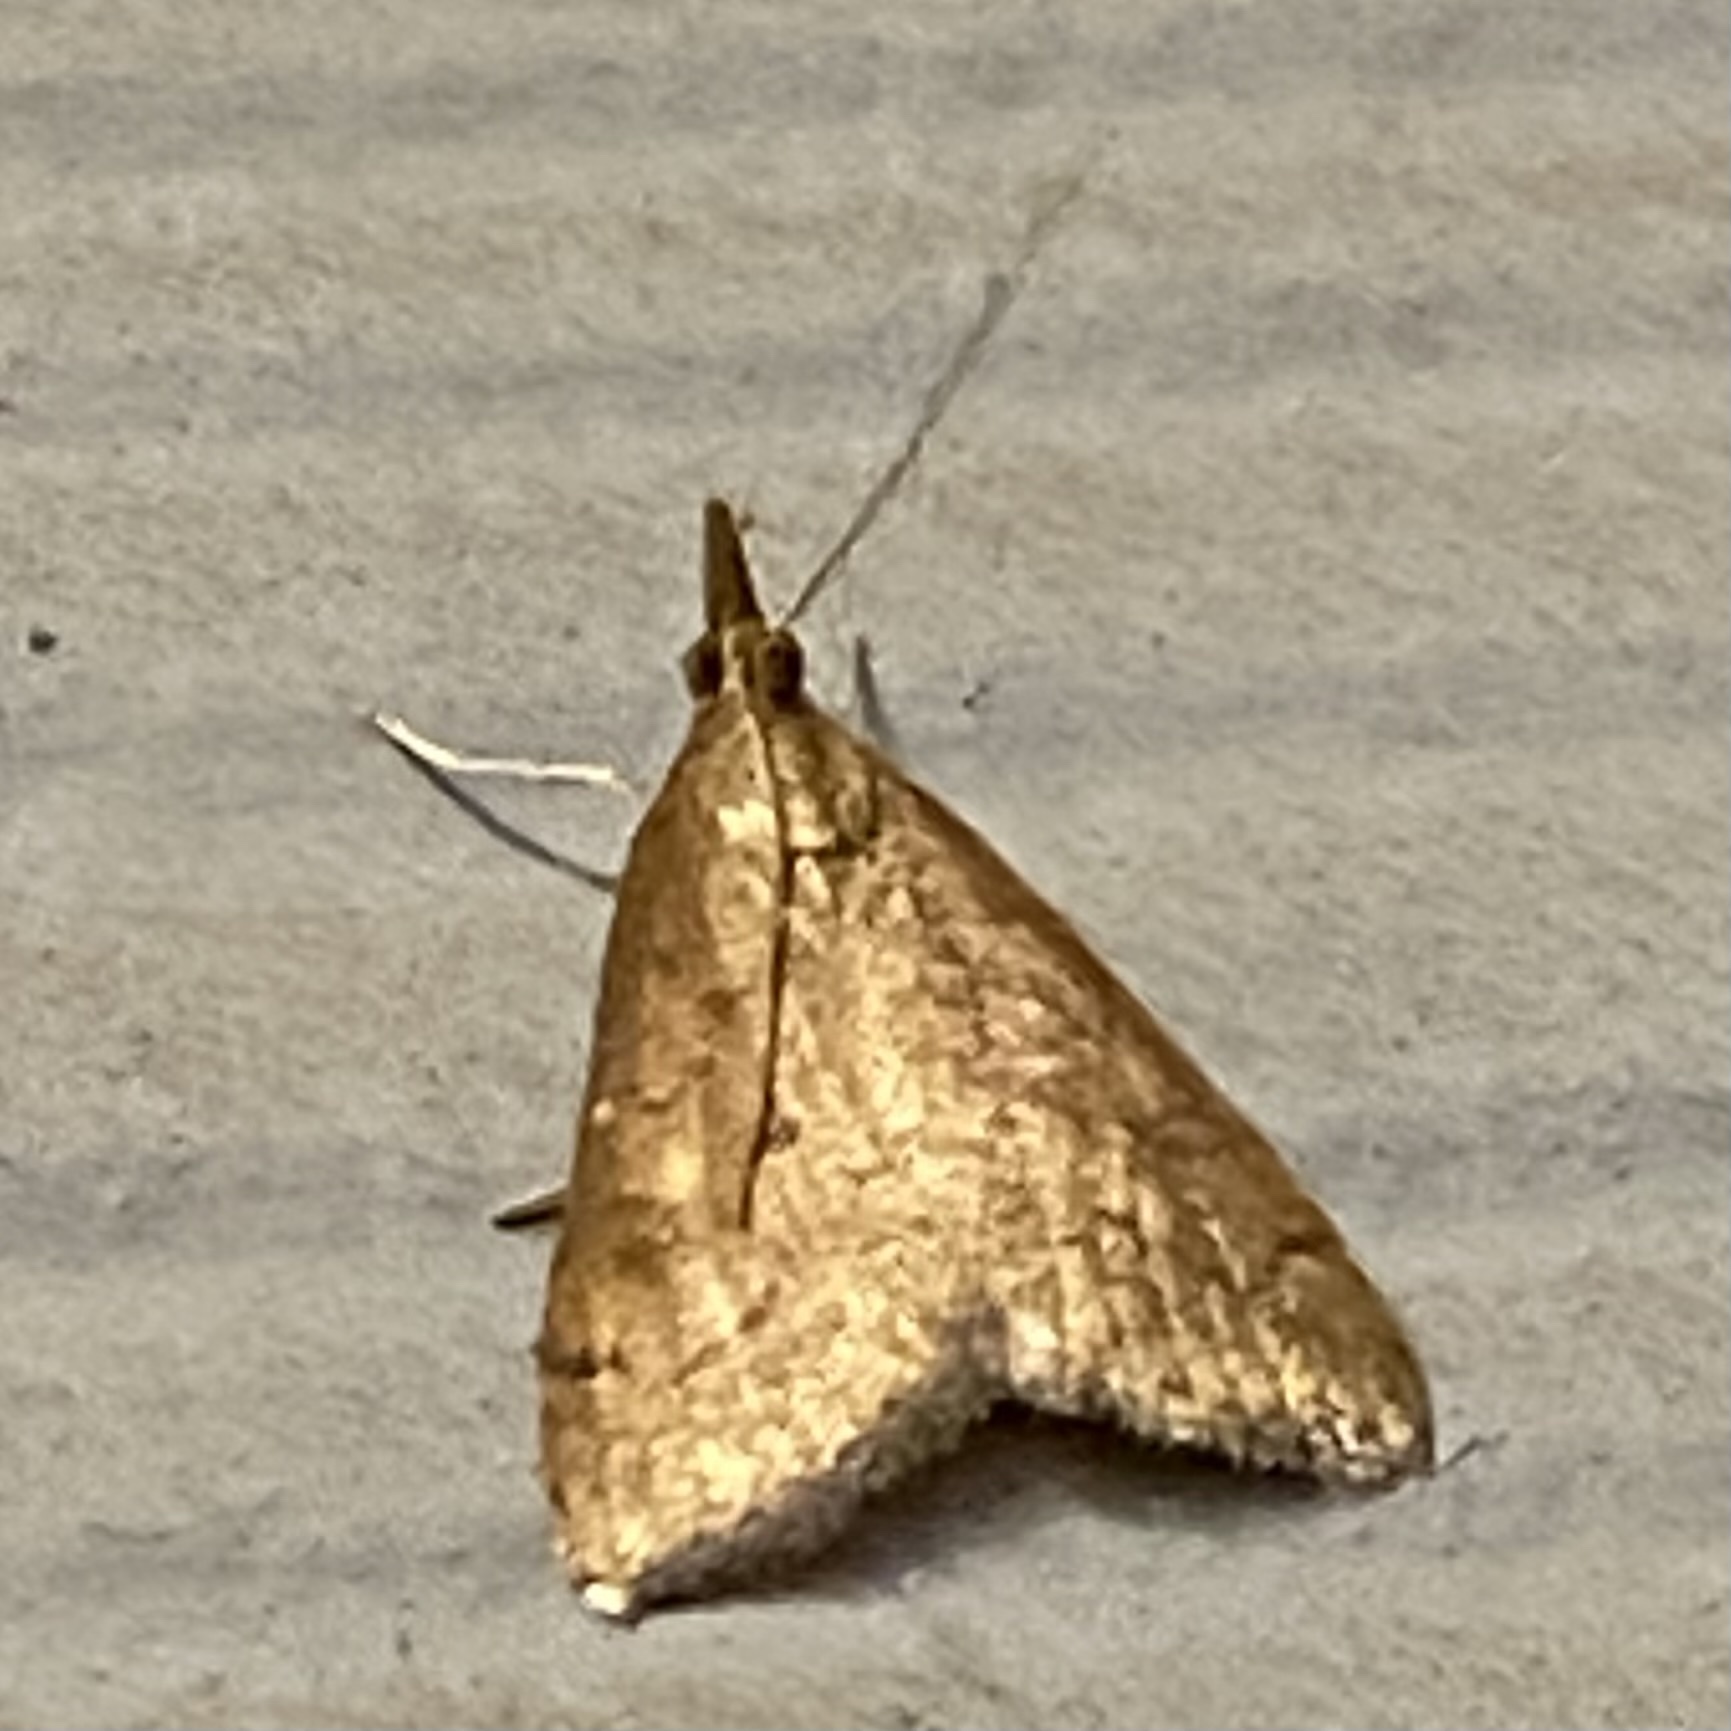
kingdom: Animalia
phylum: Arthropoda
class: Insecta
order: Lepidoptera
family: Crambidae
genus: Udea
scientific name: Udea rubigalis
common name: Celery leaftier moth
